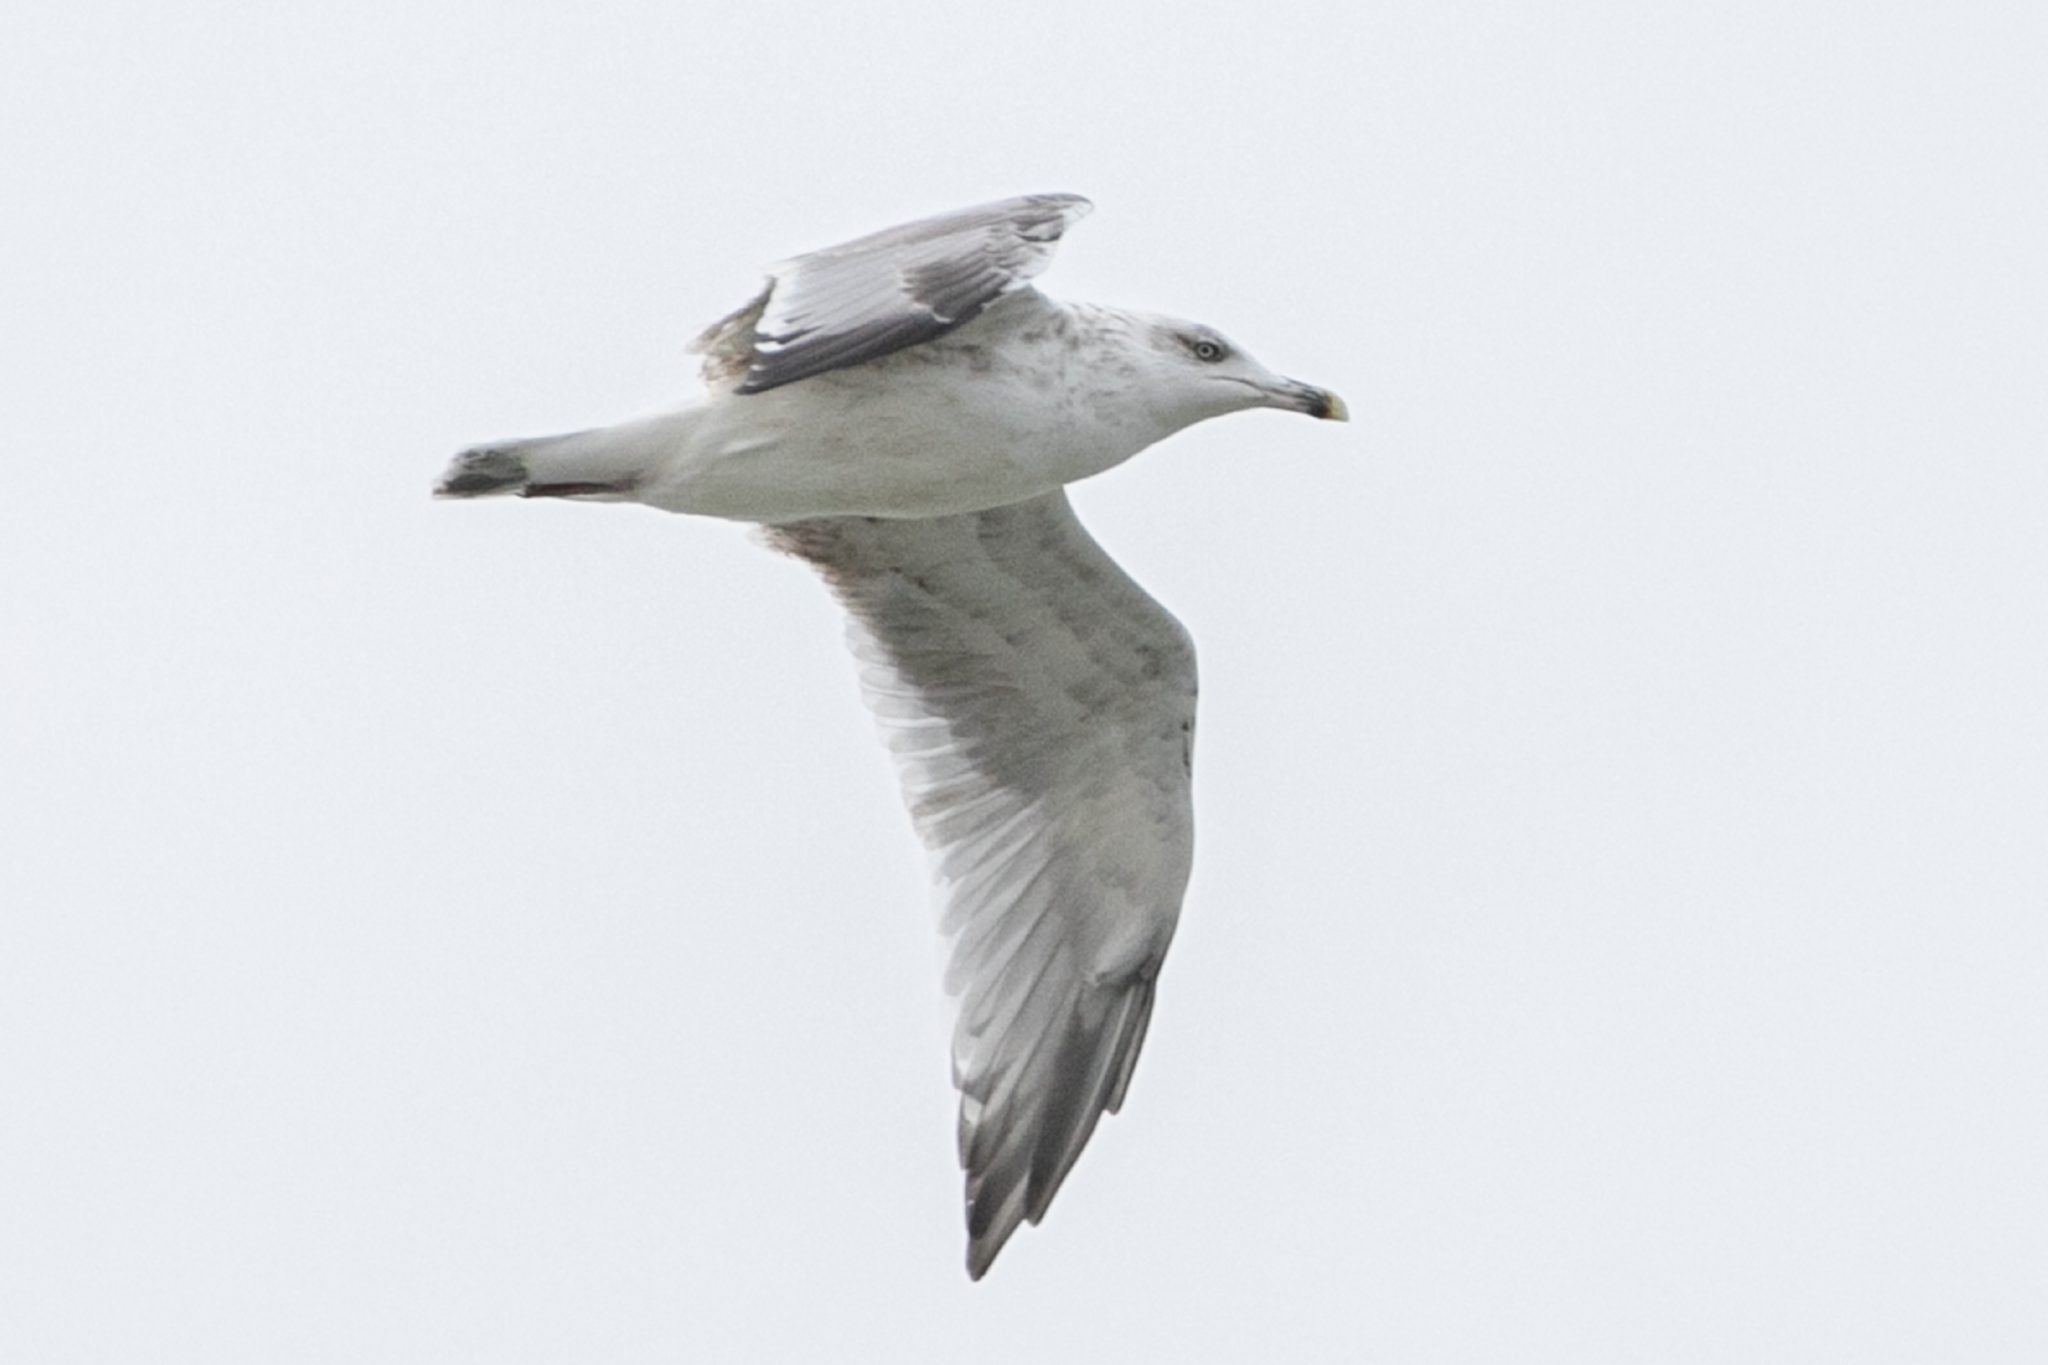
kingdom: Animalia
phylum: Chordata
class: Aves
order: Charadriiformes
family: Laridae
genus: Larus
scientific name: Larus michahellis
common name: Yellow-legged gull
